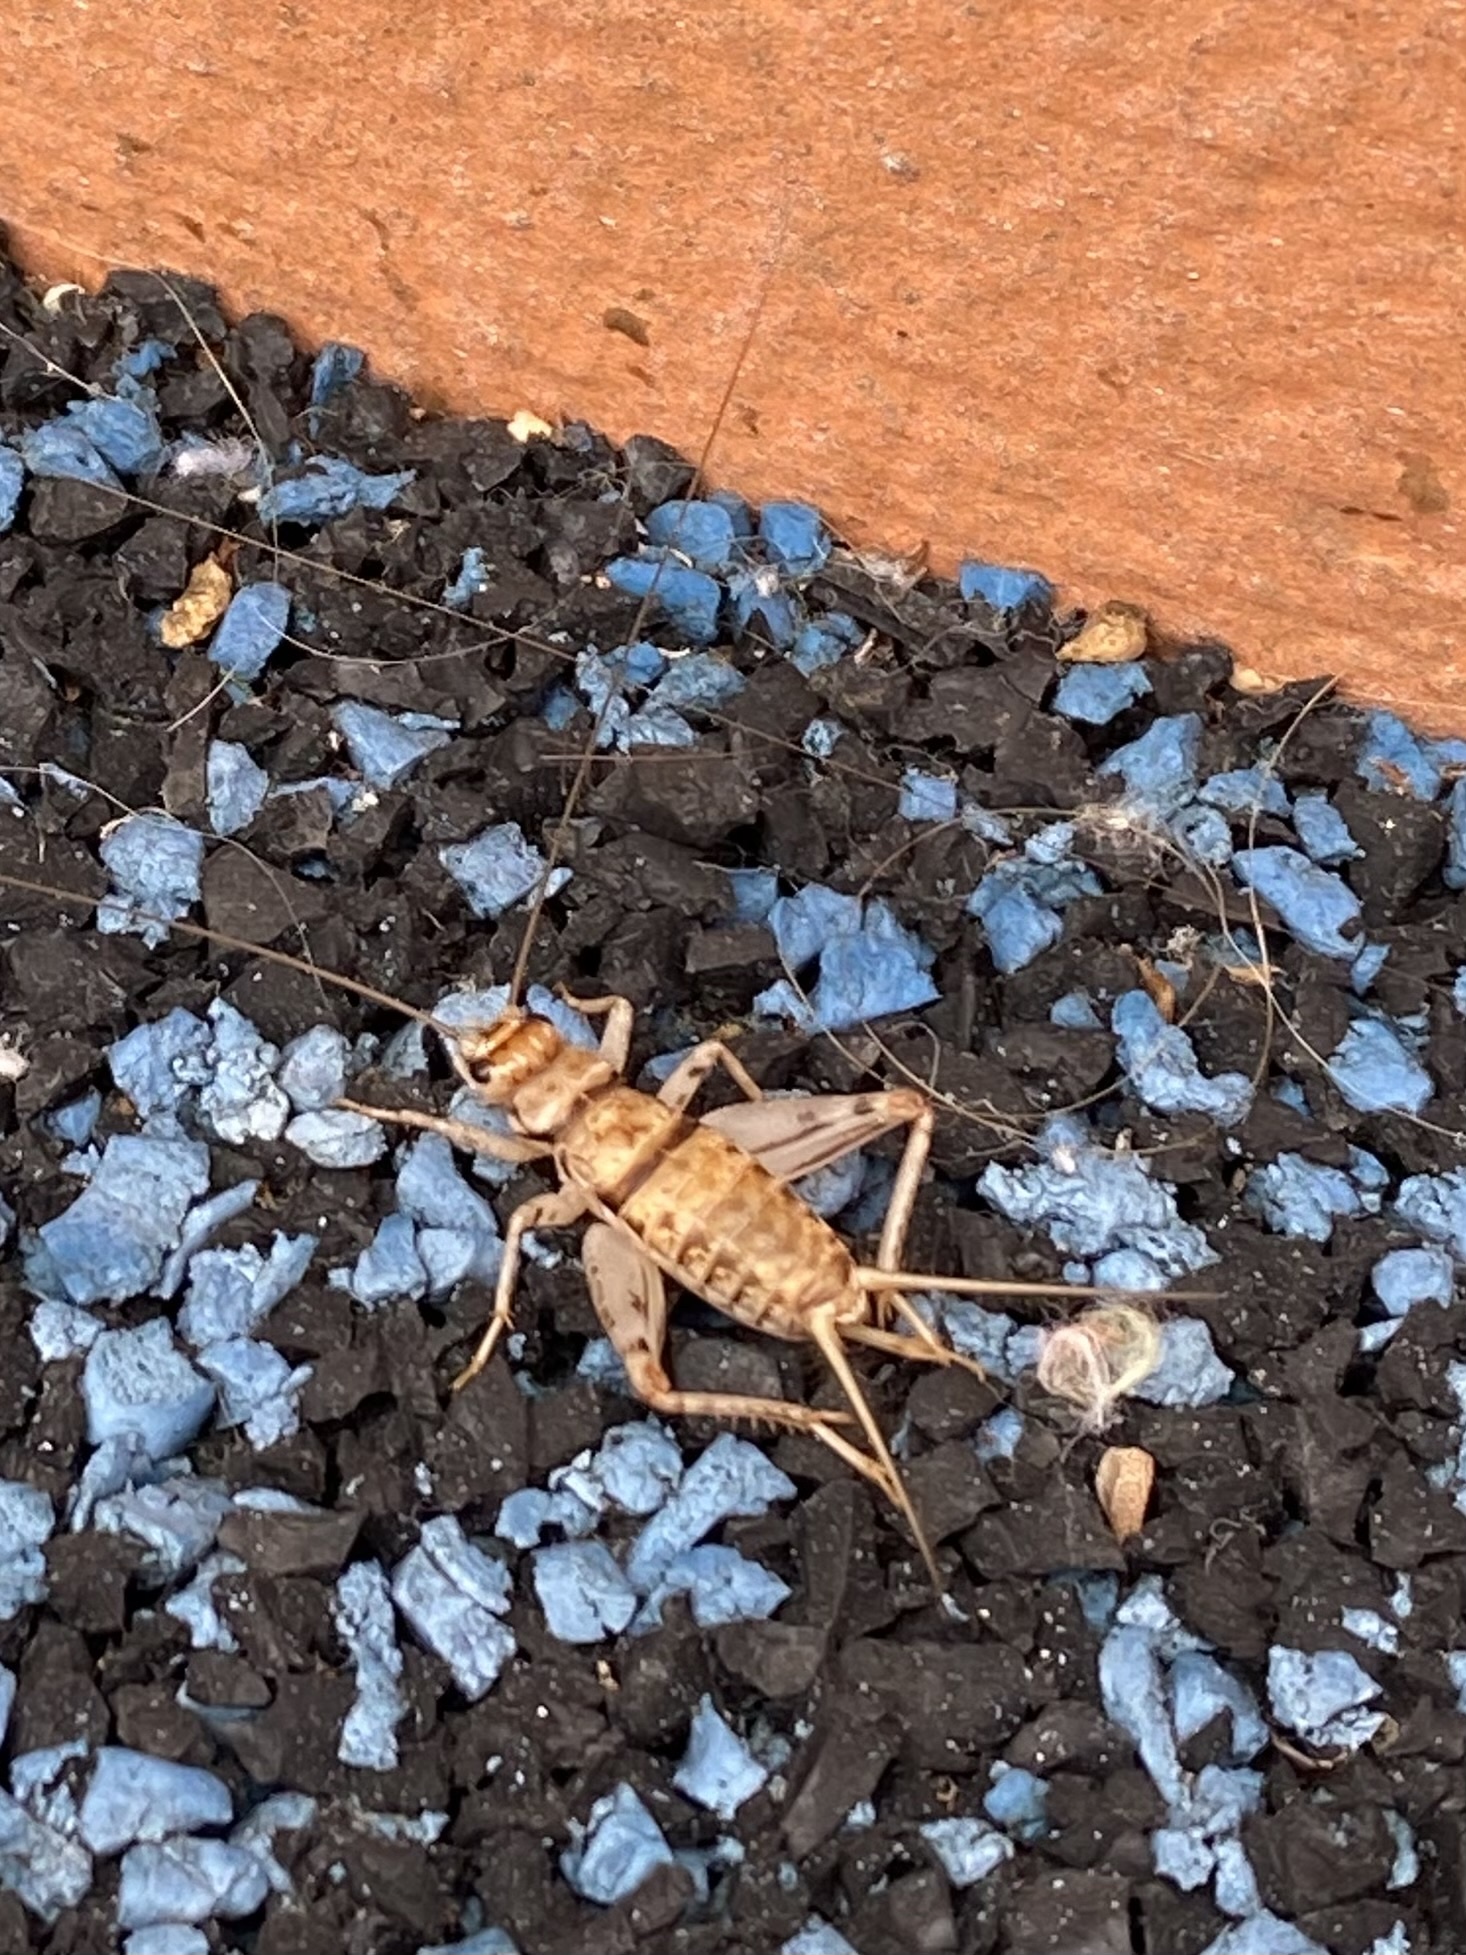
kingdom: Animalia
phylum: Arthropoda
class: Insecta
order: Orthoptera
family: Gryllidae
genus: Gryllodes
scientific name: Gryllodes sigillatus
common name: Tropical house cricket
